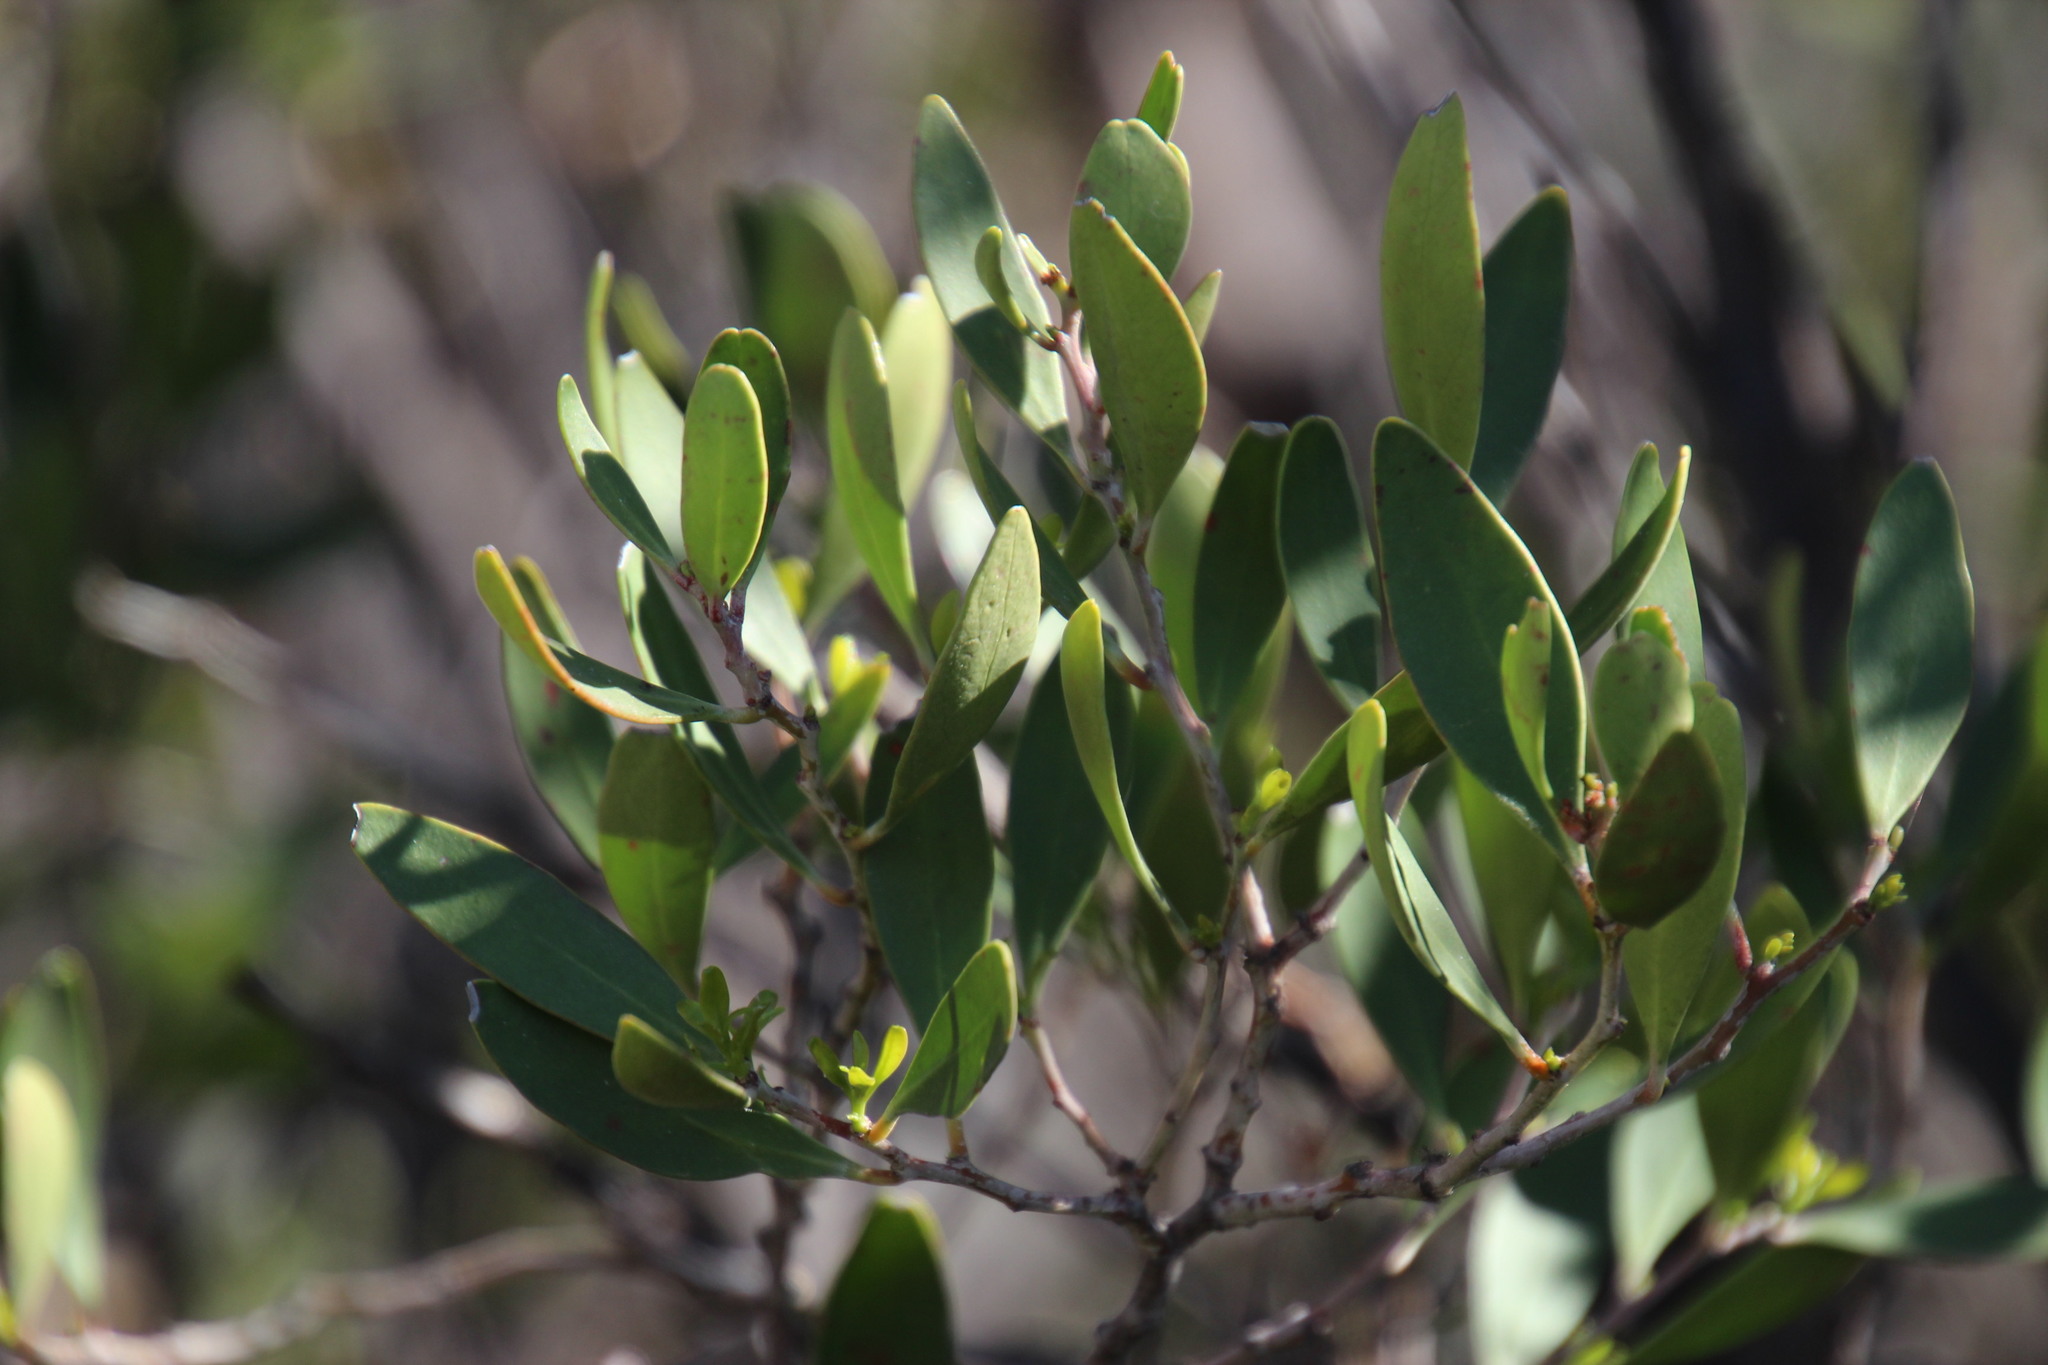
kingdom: Plantae
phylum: Tracheophyta
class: Magnoliopsida
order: Celastrales
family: Celastraceae
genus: Gymnosporia
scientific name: Gymnosporia laurina
